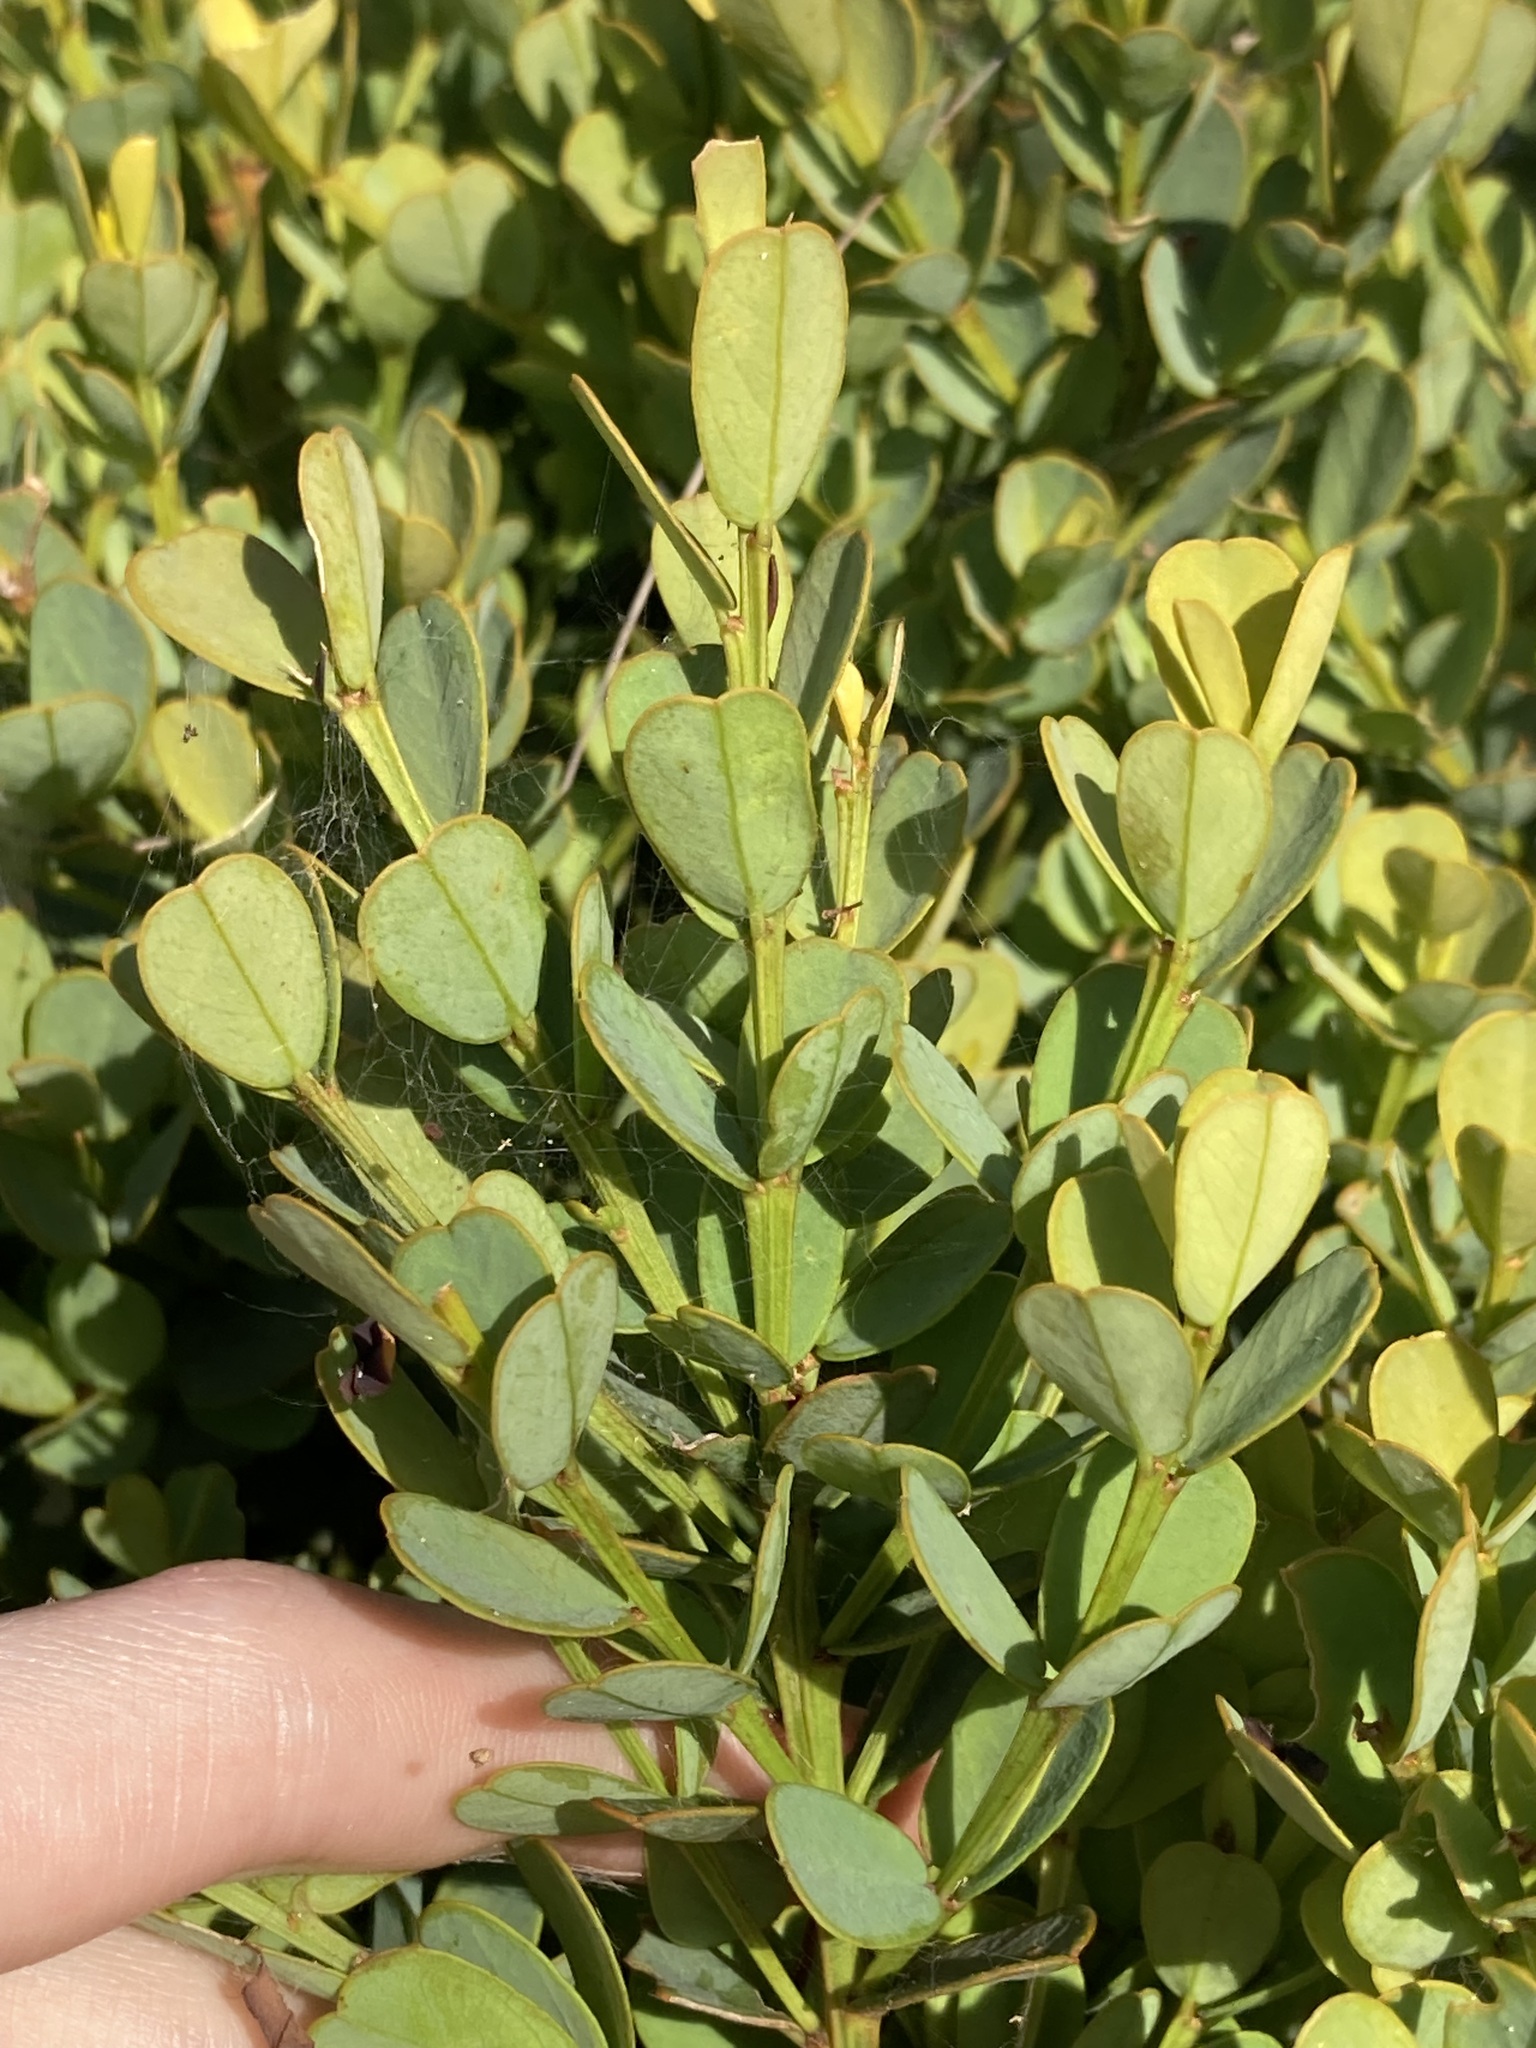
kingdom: Plantae
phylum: Tracheophyta
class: Magnoliopsida
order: Fabales
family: Fabaceae
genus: Templetonia
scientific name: Templetonia retusa
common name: Cockies'-tongue
